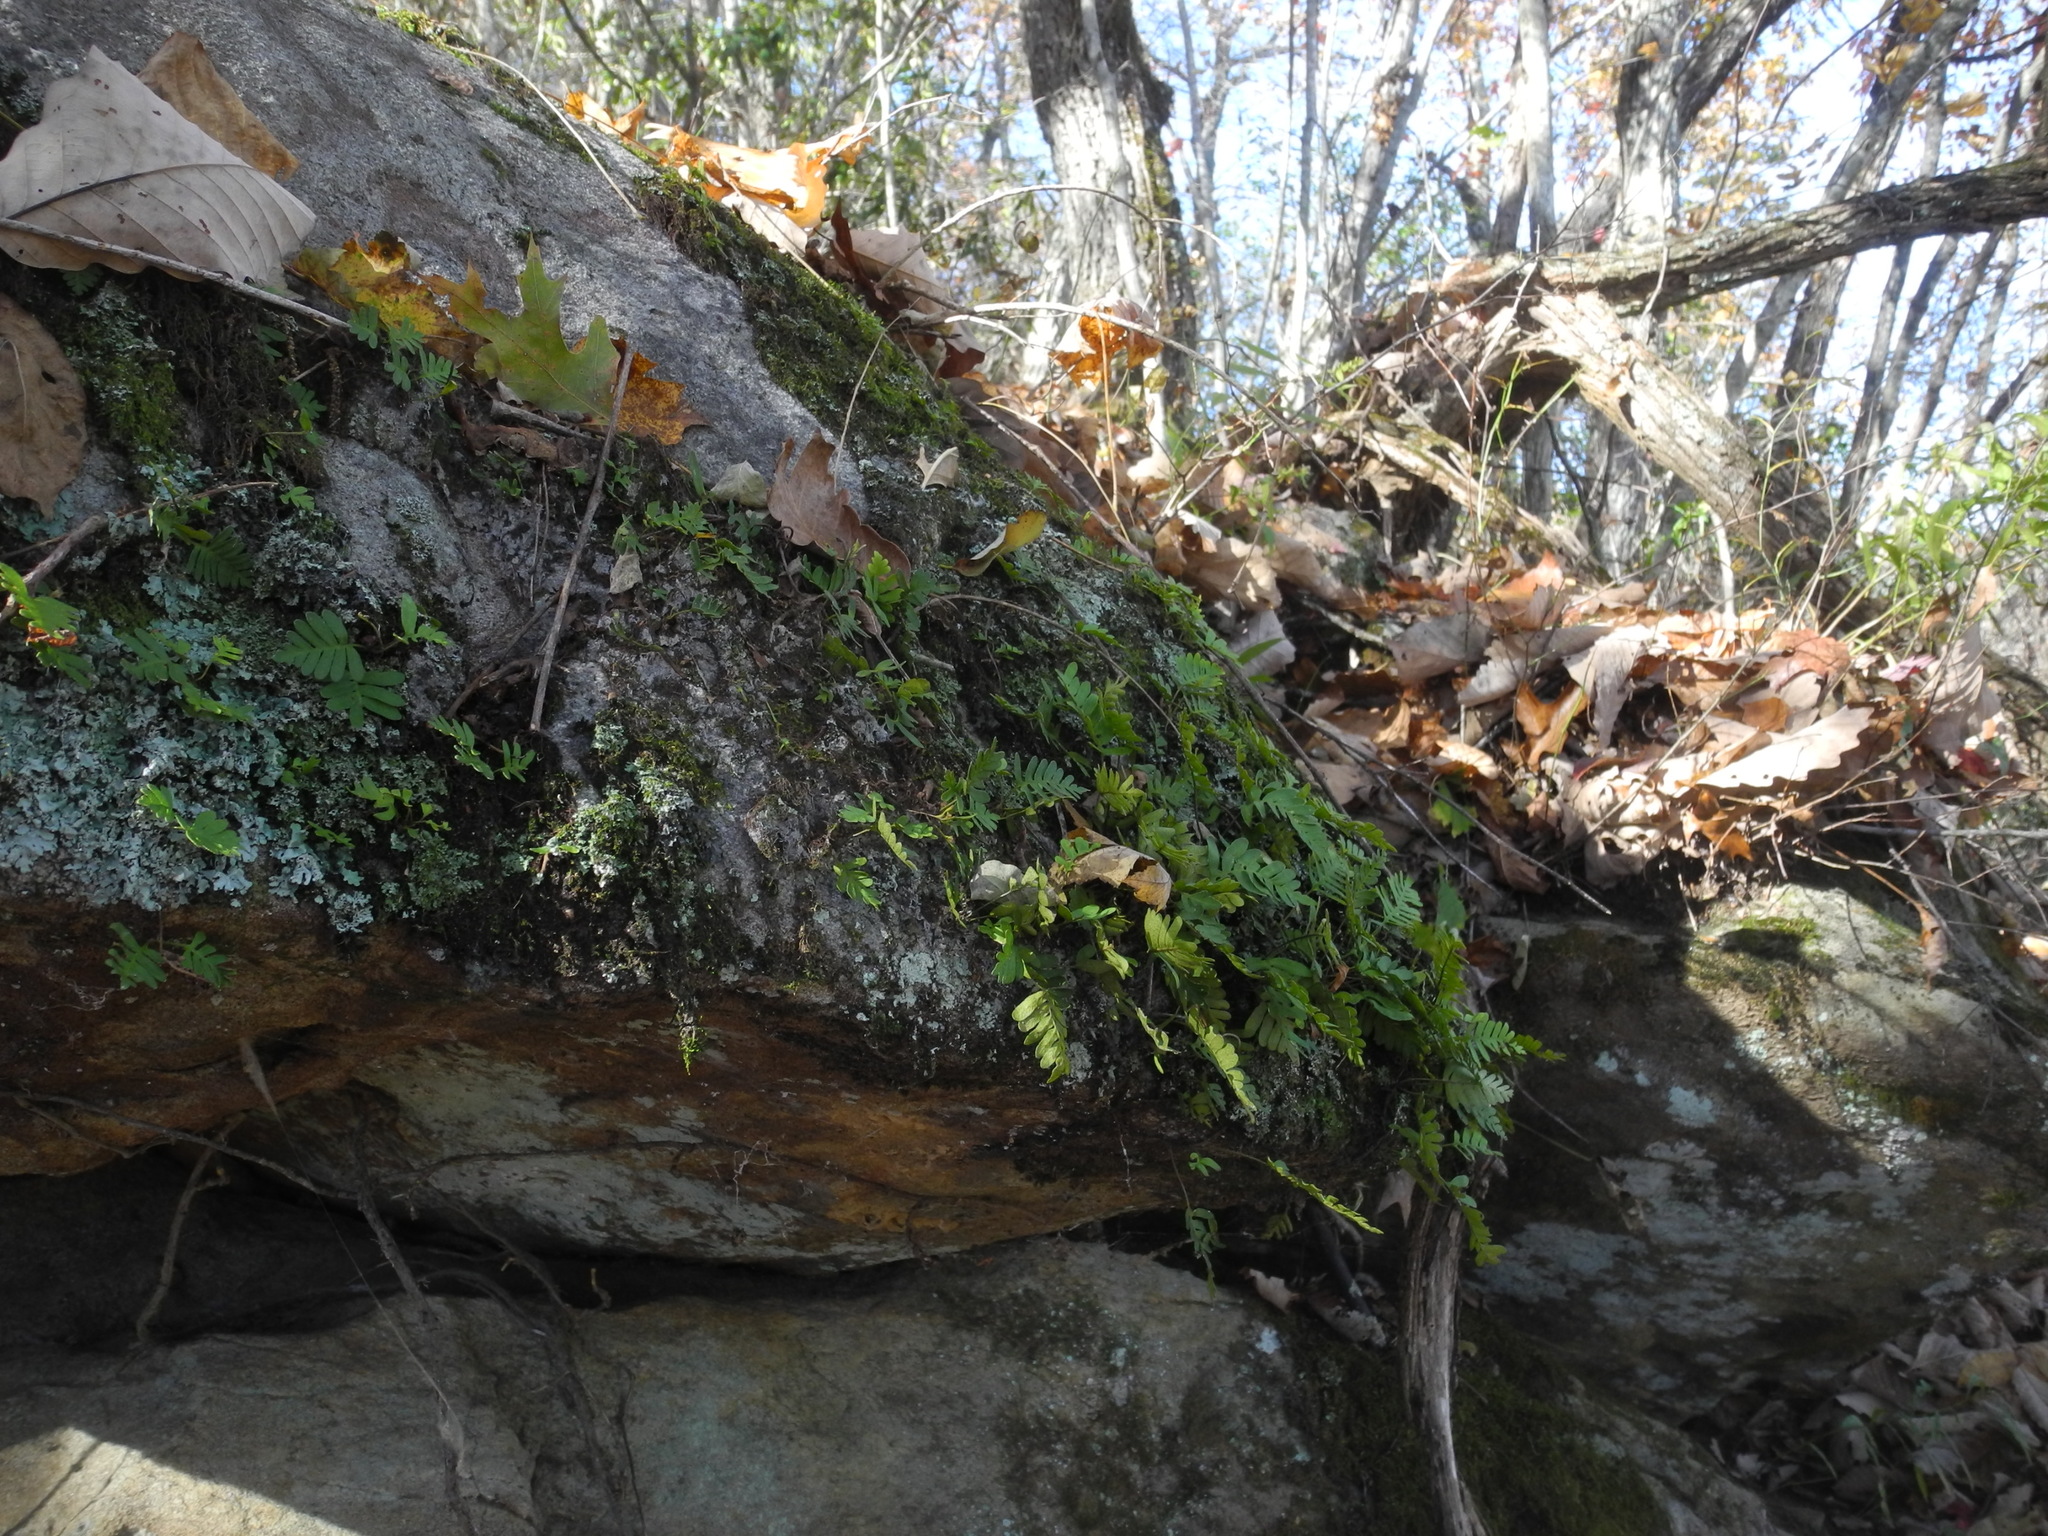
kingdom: Plantae
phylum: Tracheophyta
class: Polypodiopsida
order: Polypodiales
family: Polypodiaceae
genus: Pleopeltis
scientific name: Pleopeltis michauxiana
